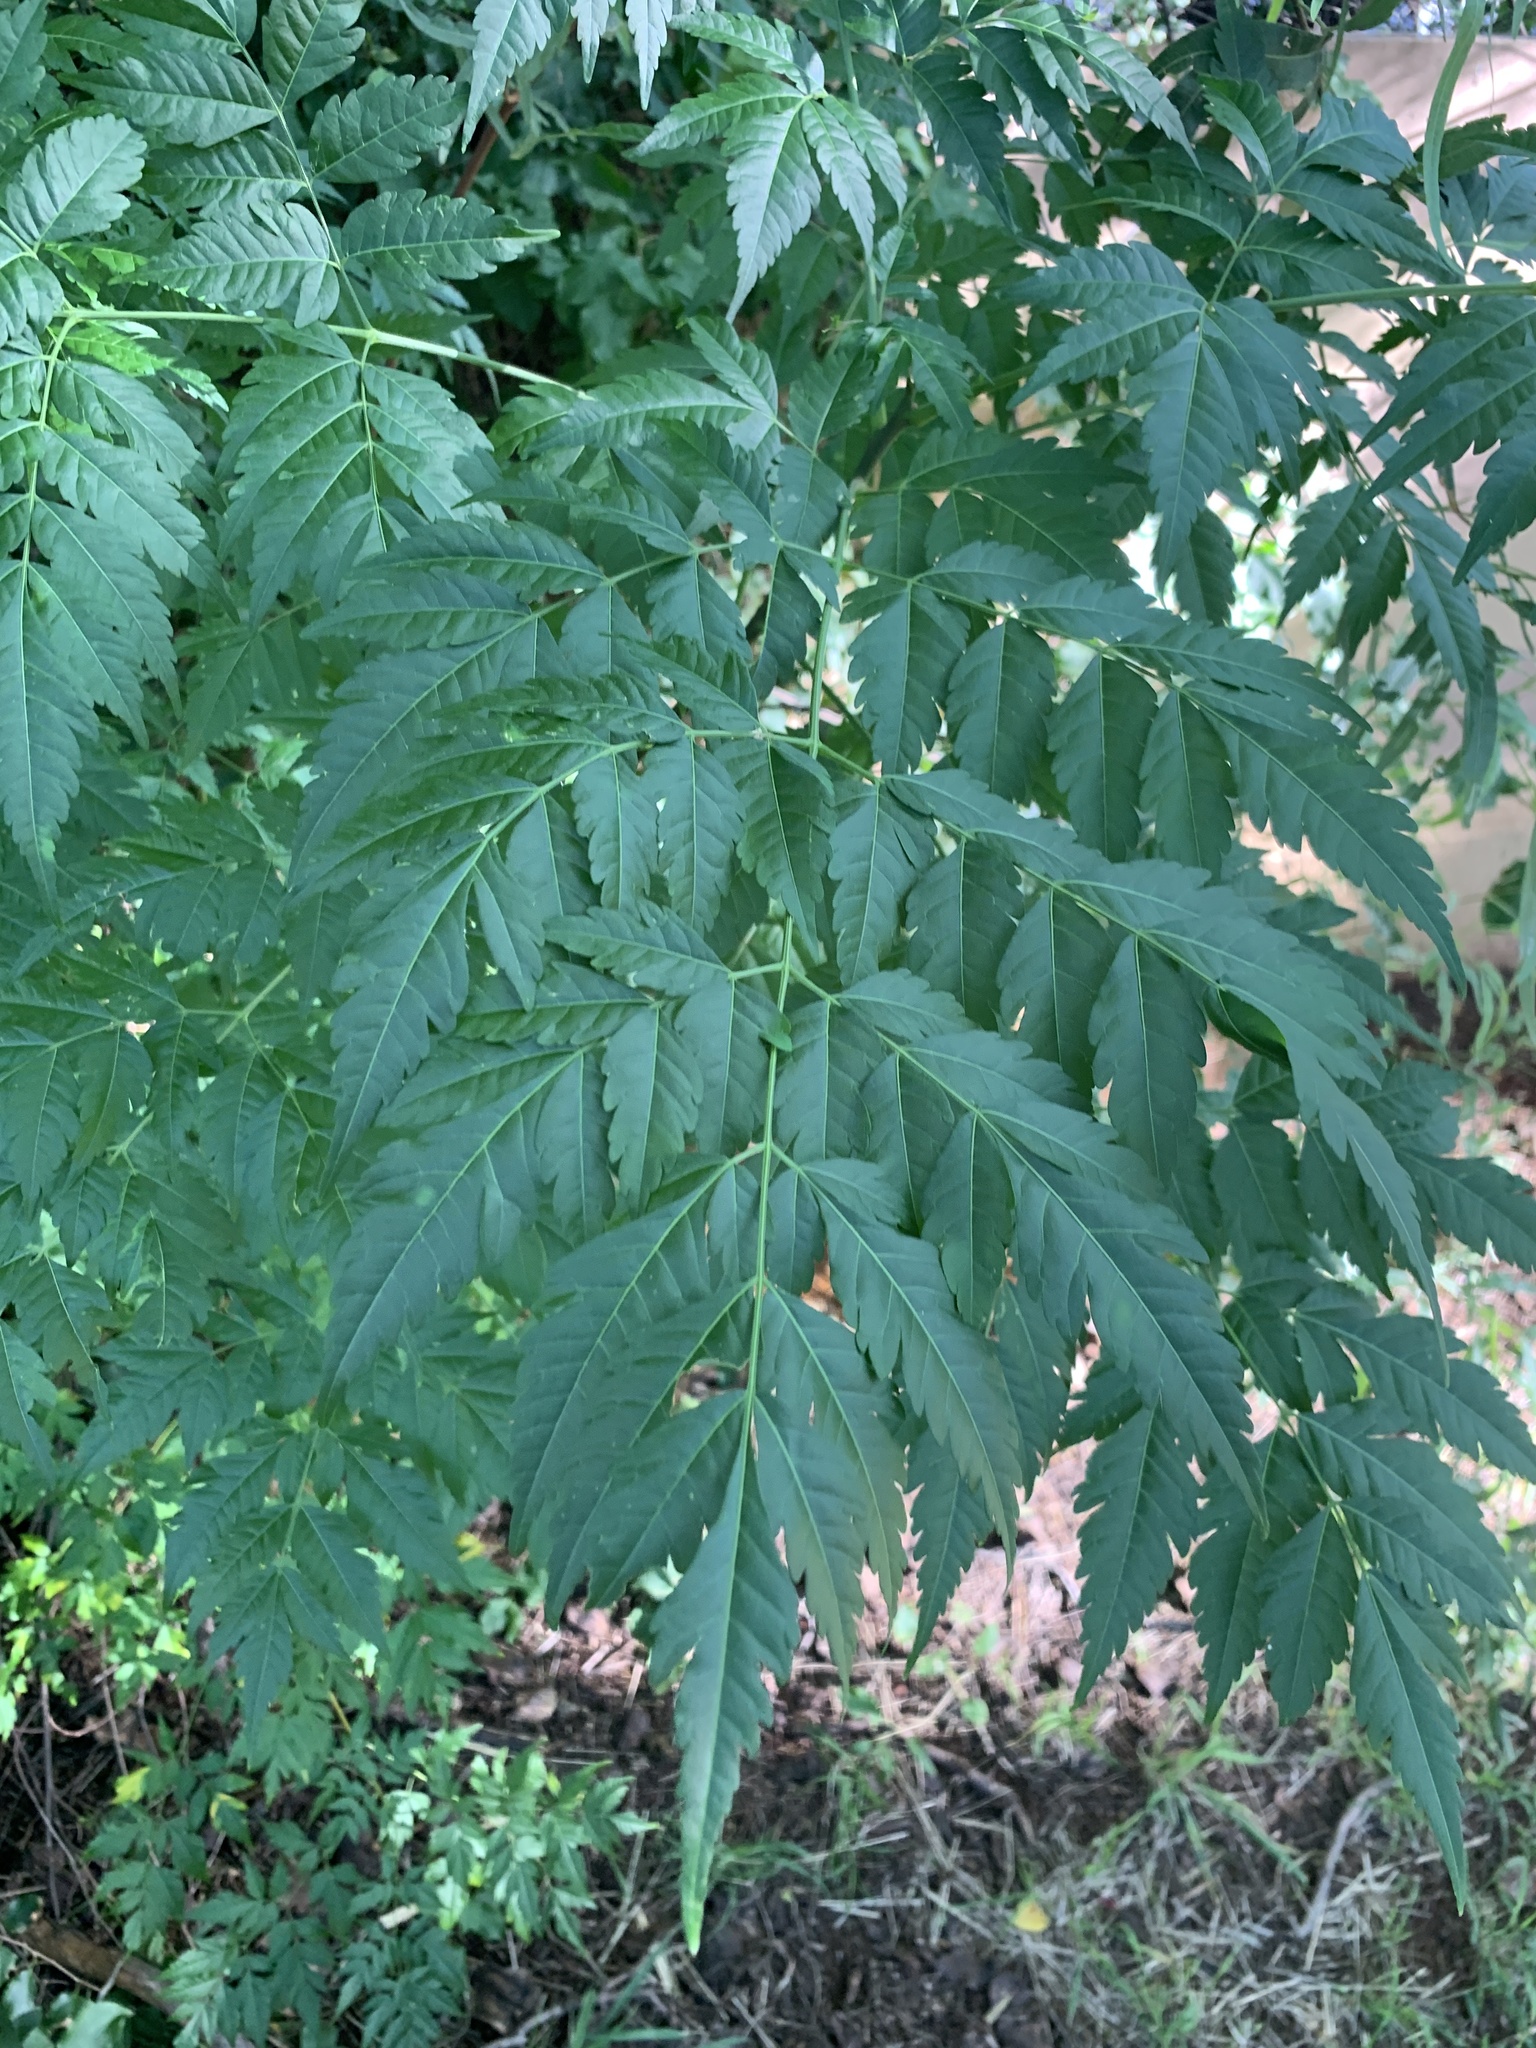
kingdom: Plantae
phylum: Tracheophyta
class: Magnoliopsida
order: Sapindales
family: Meliaceae
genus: Melia
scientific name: Melia azedarach
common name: Chinaberrytree
